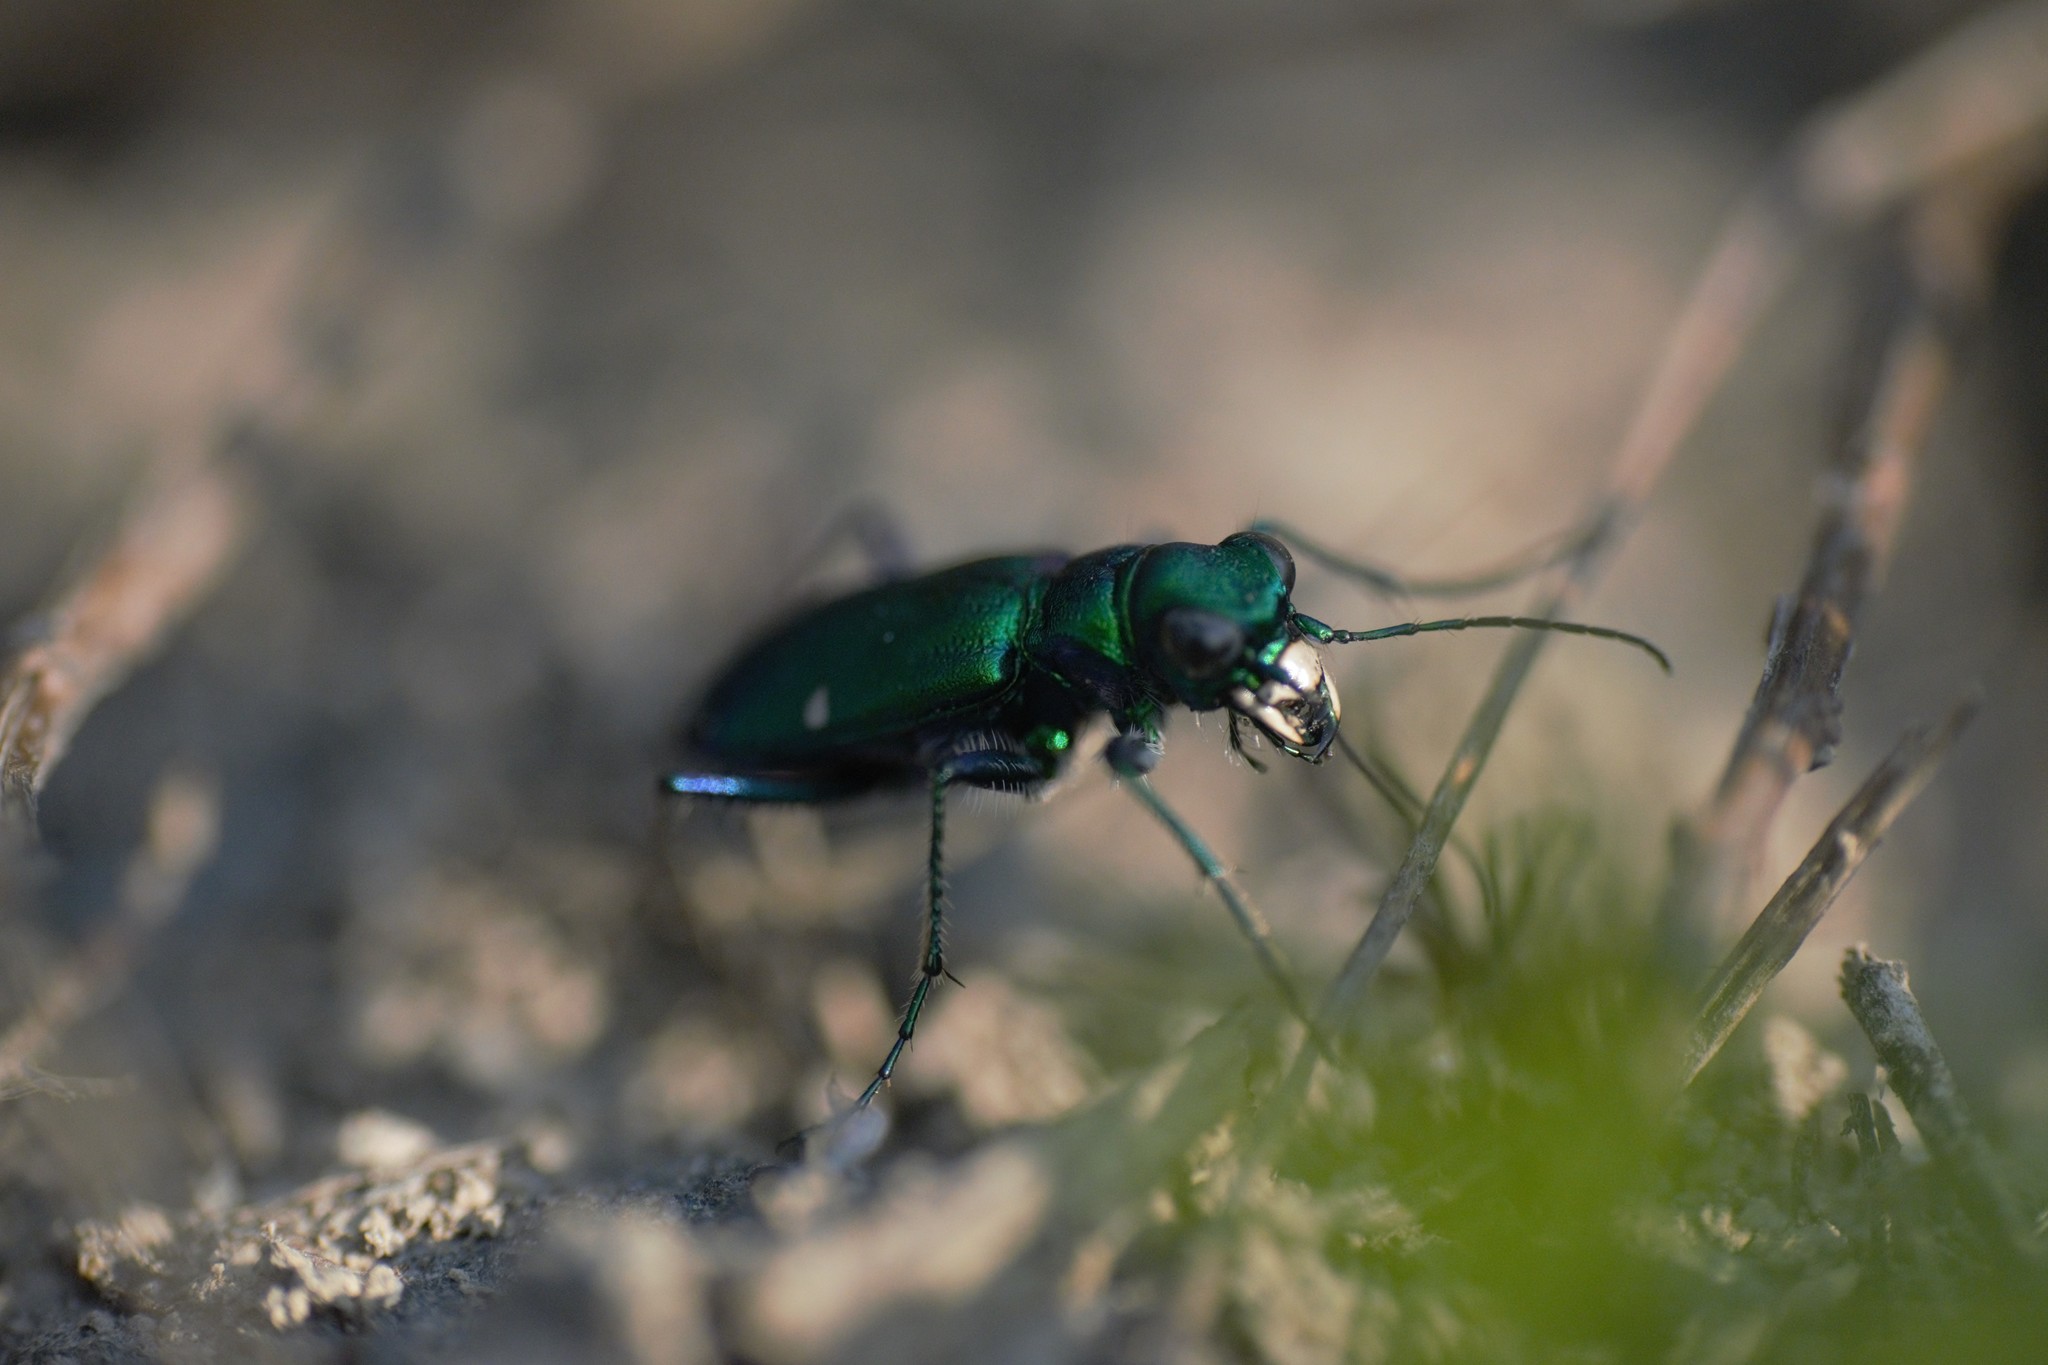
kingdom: Animalia
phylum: Arthropoda
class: Insecta
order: Coleoptera
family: Carabidae
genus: Cicindela
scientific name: Cicindela sexguttata
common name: Six-spotted tiger beetle
